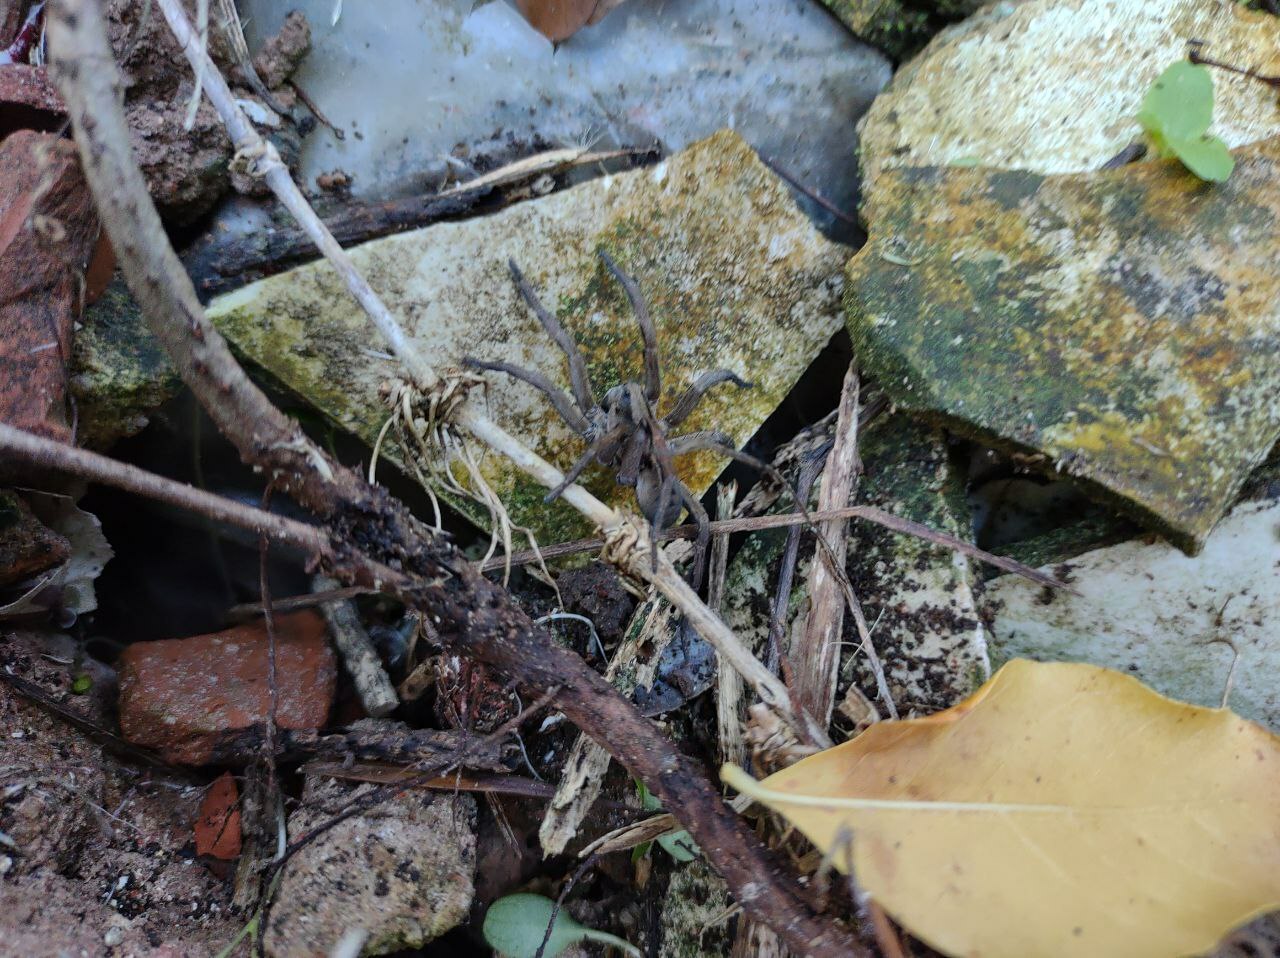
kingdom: Animalia
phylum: Arthropoda
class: Arachnida
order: Araneae
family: Lycosidae
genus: Lycosa
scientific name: Lycosa erythrognatha
